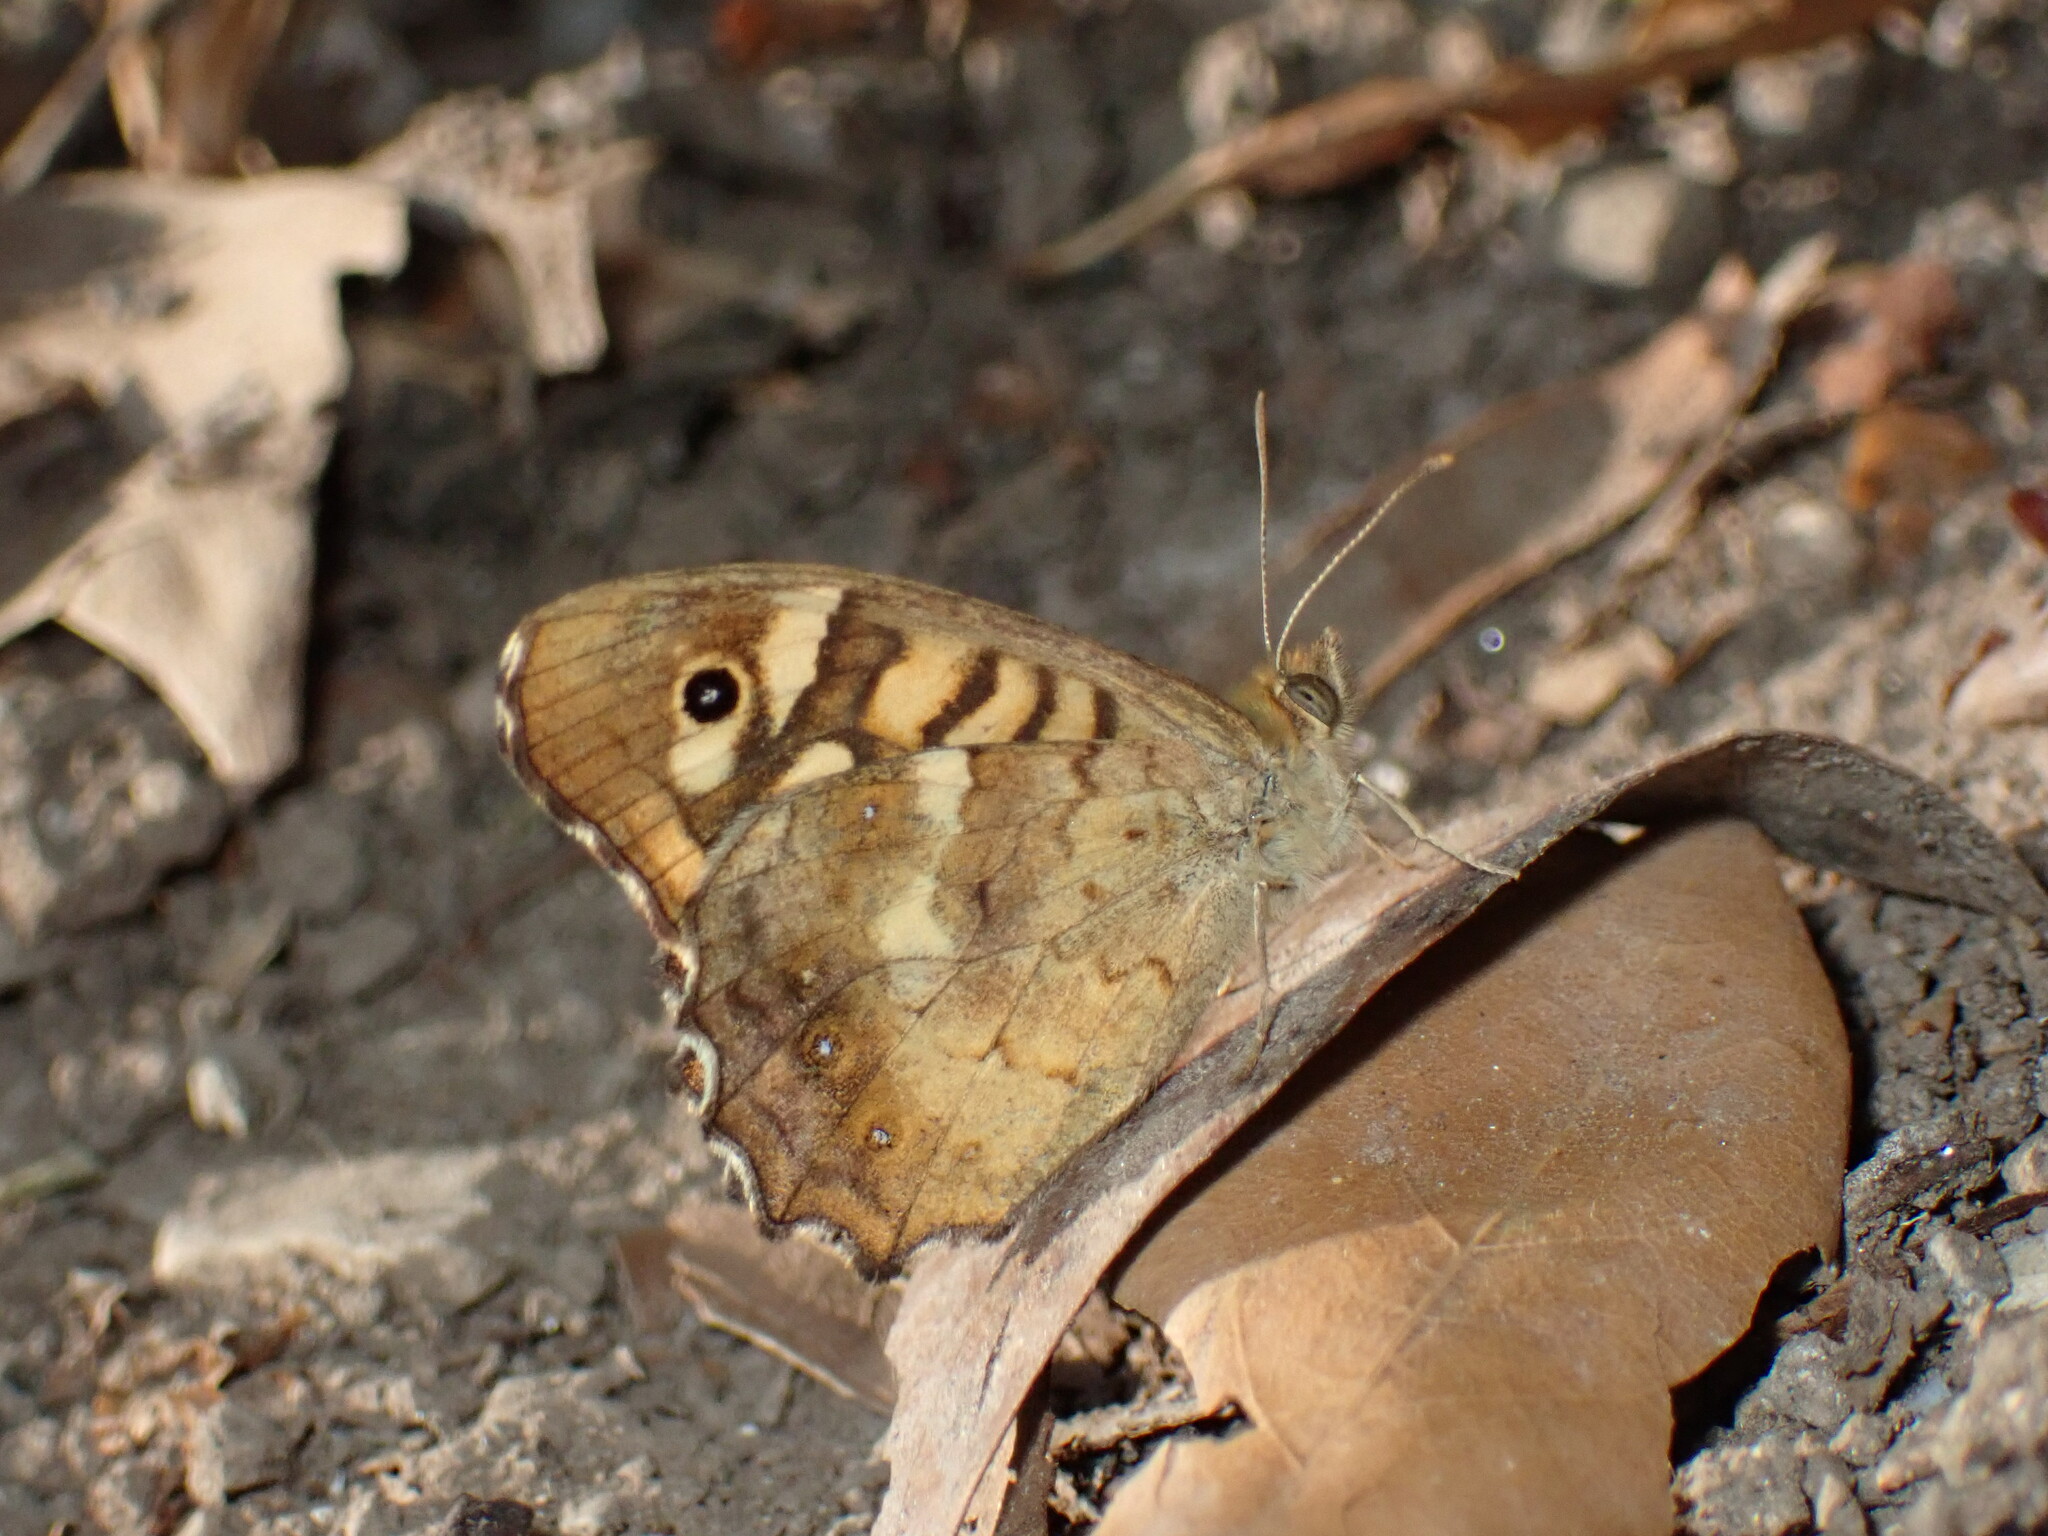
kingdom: Animalia
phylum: Arthropoda
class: Insecta
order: Lepidoptera
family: Nymphalidae
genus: Pararge
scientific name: Pararge aegeria
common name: Speckled wood
